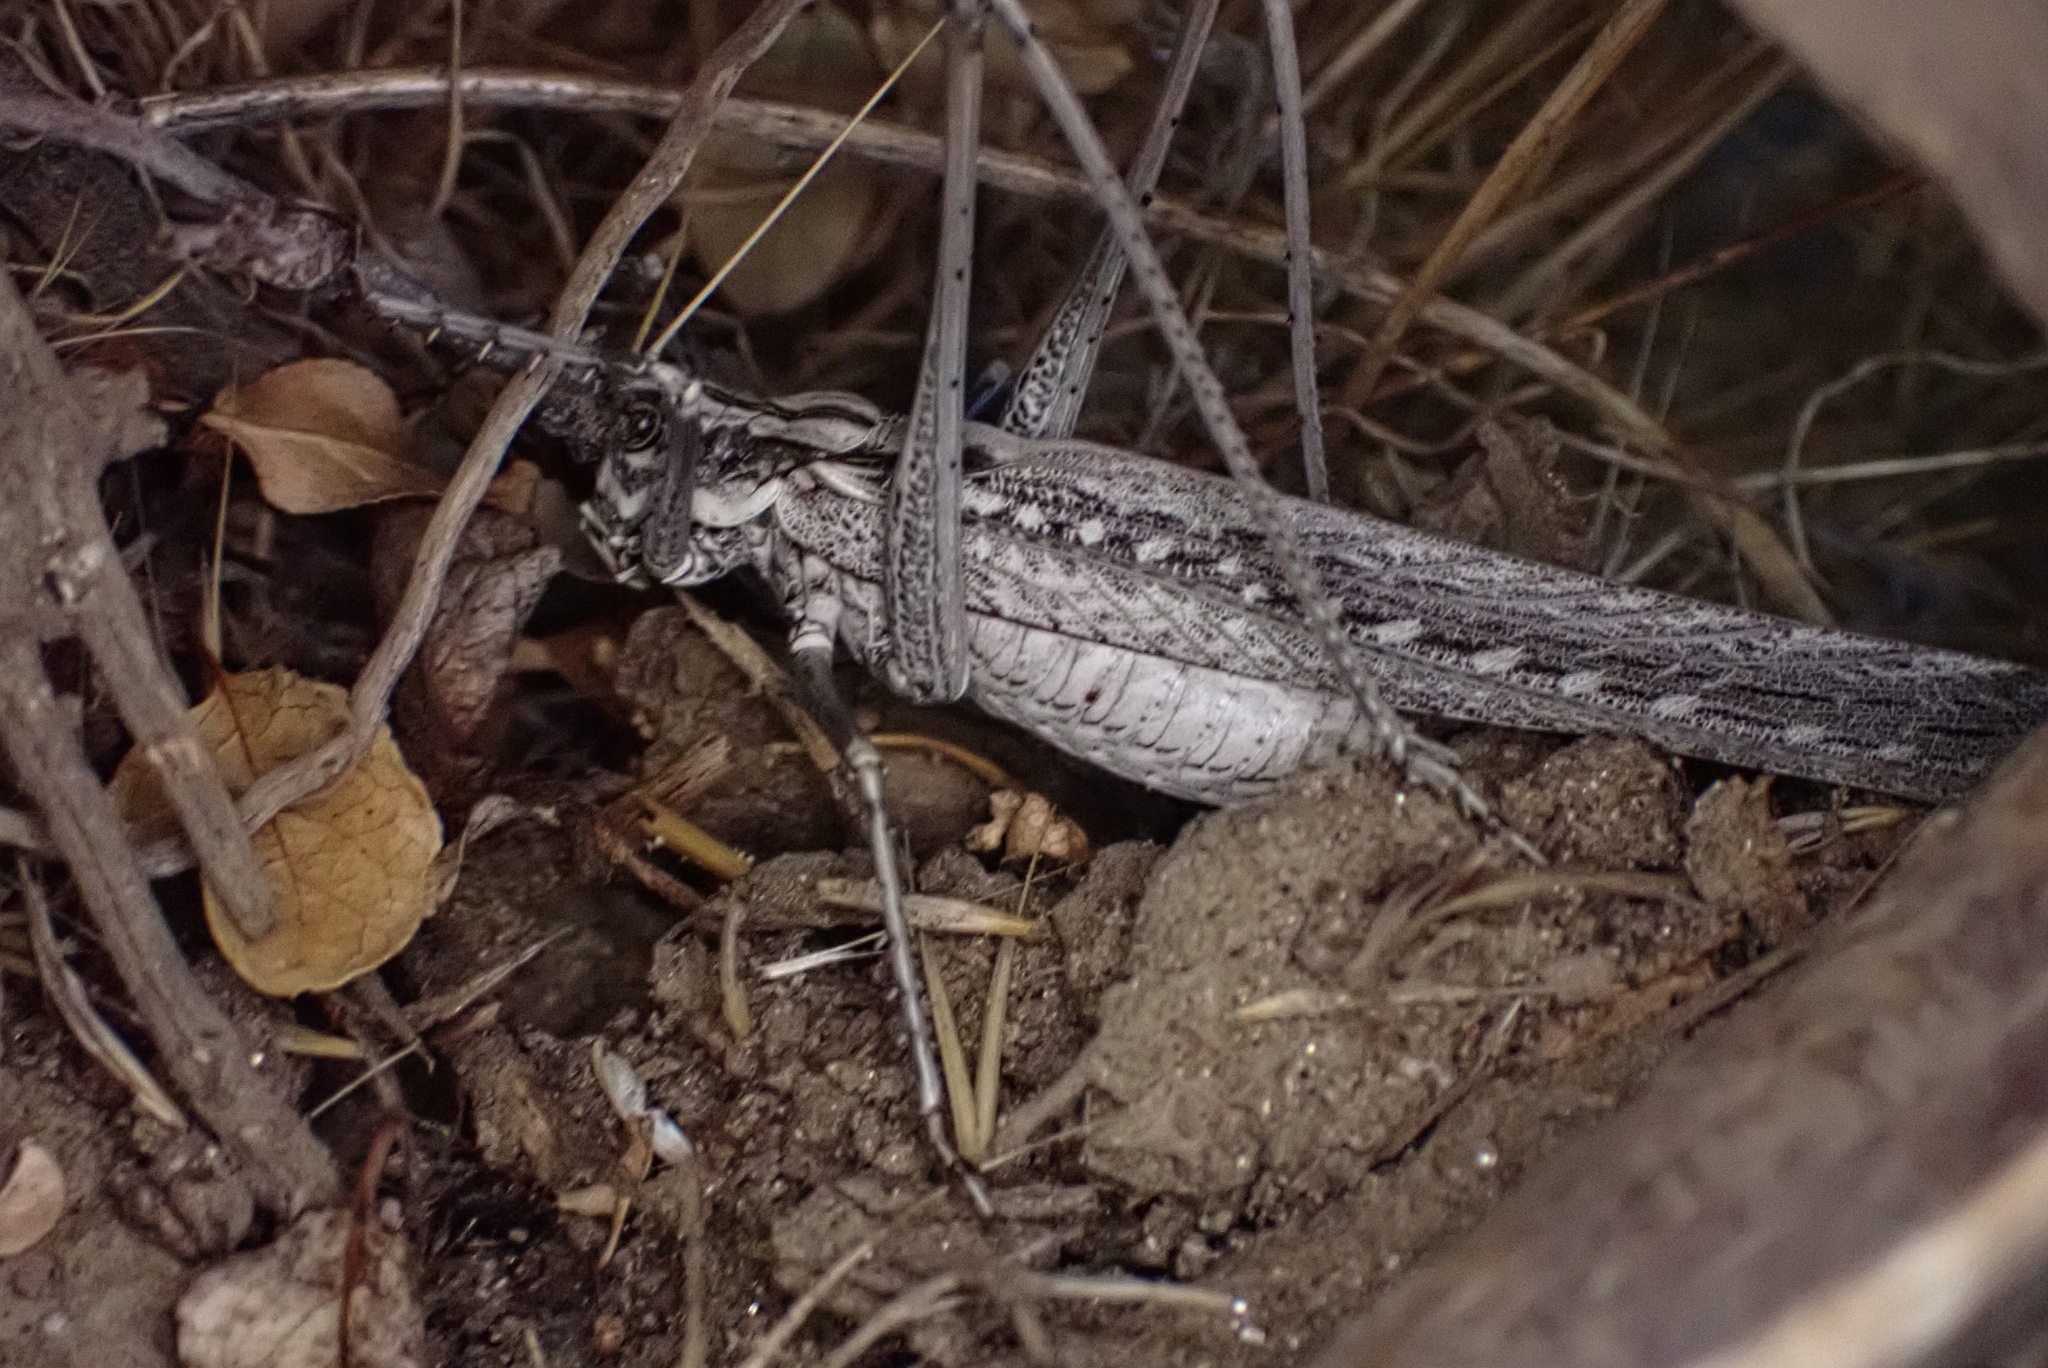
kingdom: Animalia
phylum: Arthropoda
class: Insecta
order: Orthoptera
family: Tettigoniidae
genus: Capnobotes
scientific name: Capnobotes fuliginosus
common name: Sooty longwing
